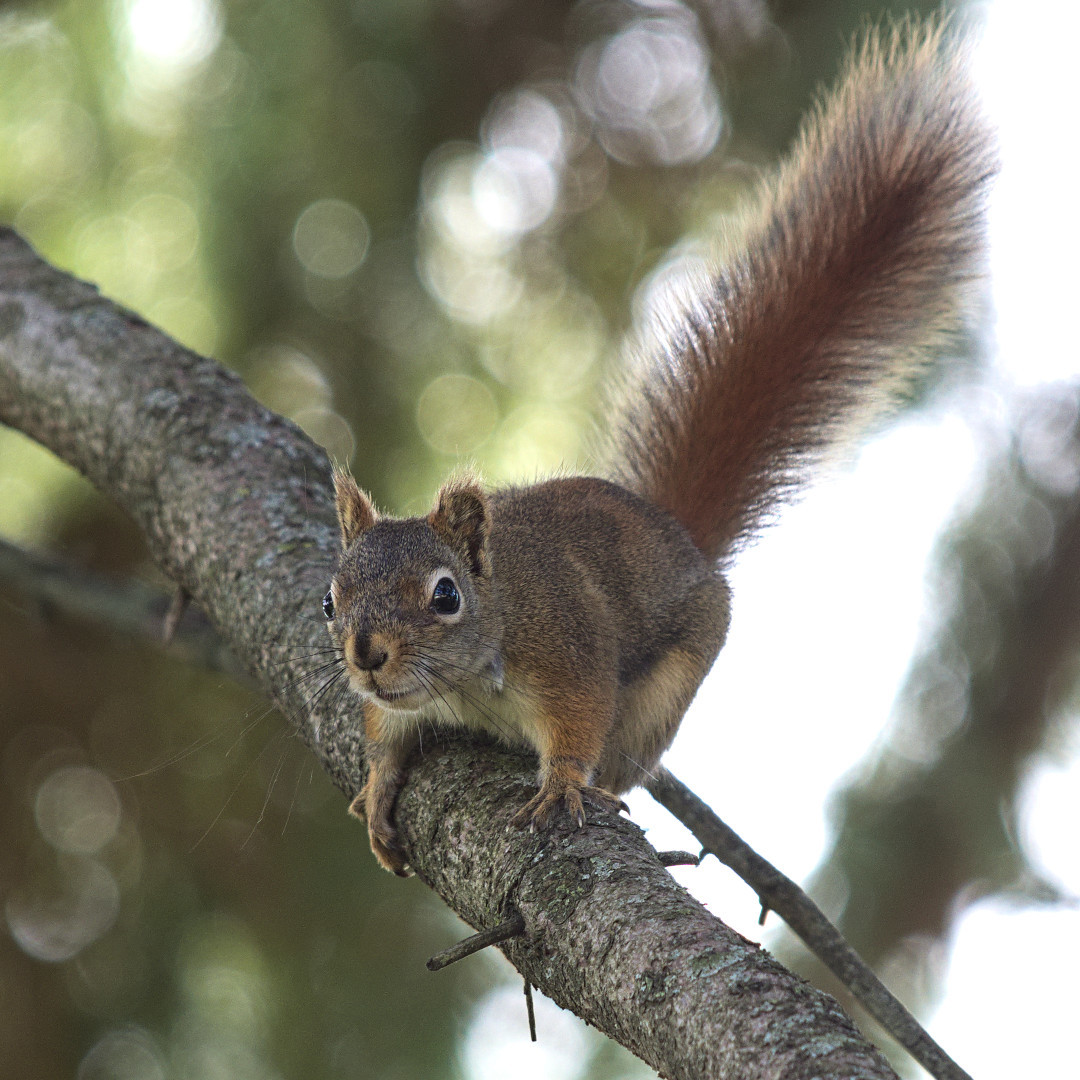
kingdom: Animalia
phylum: Chordata
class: Mammalia
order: Rodentia
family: Sciuridae
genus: Tamiasciurus
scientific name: Tamiasciurus hudsonicus
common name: Red squirrel
